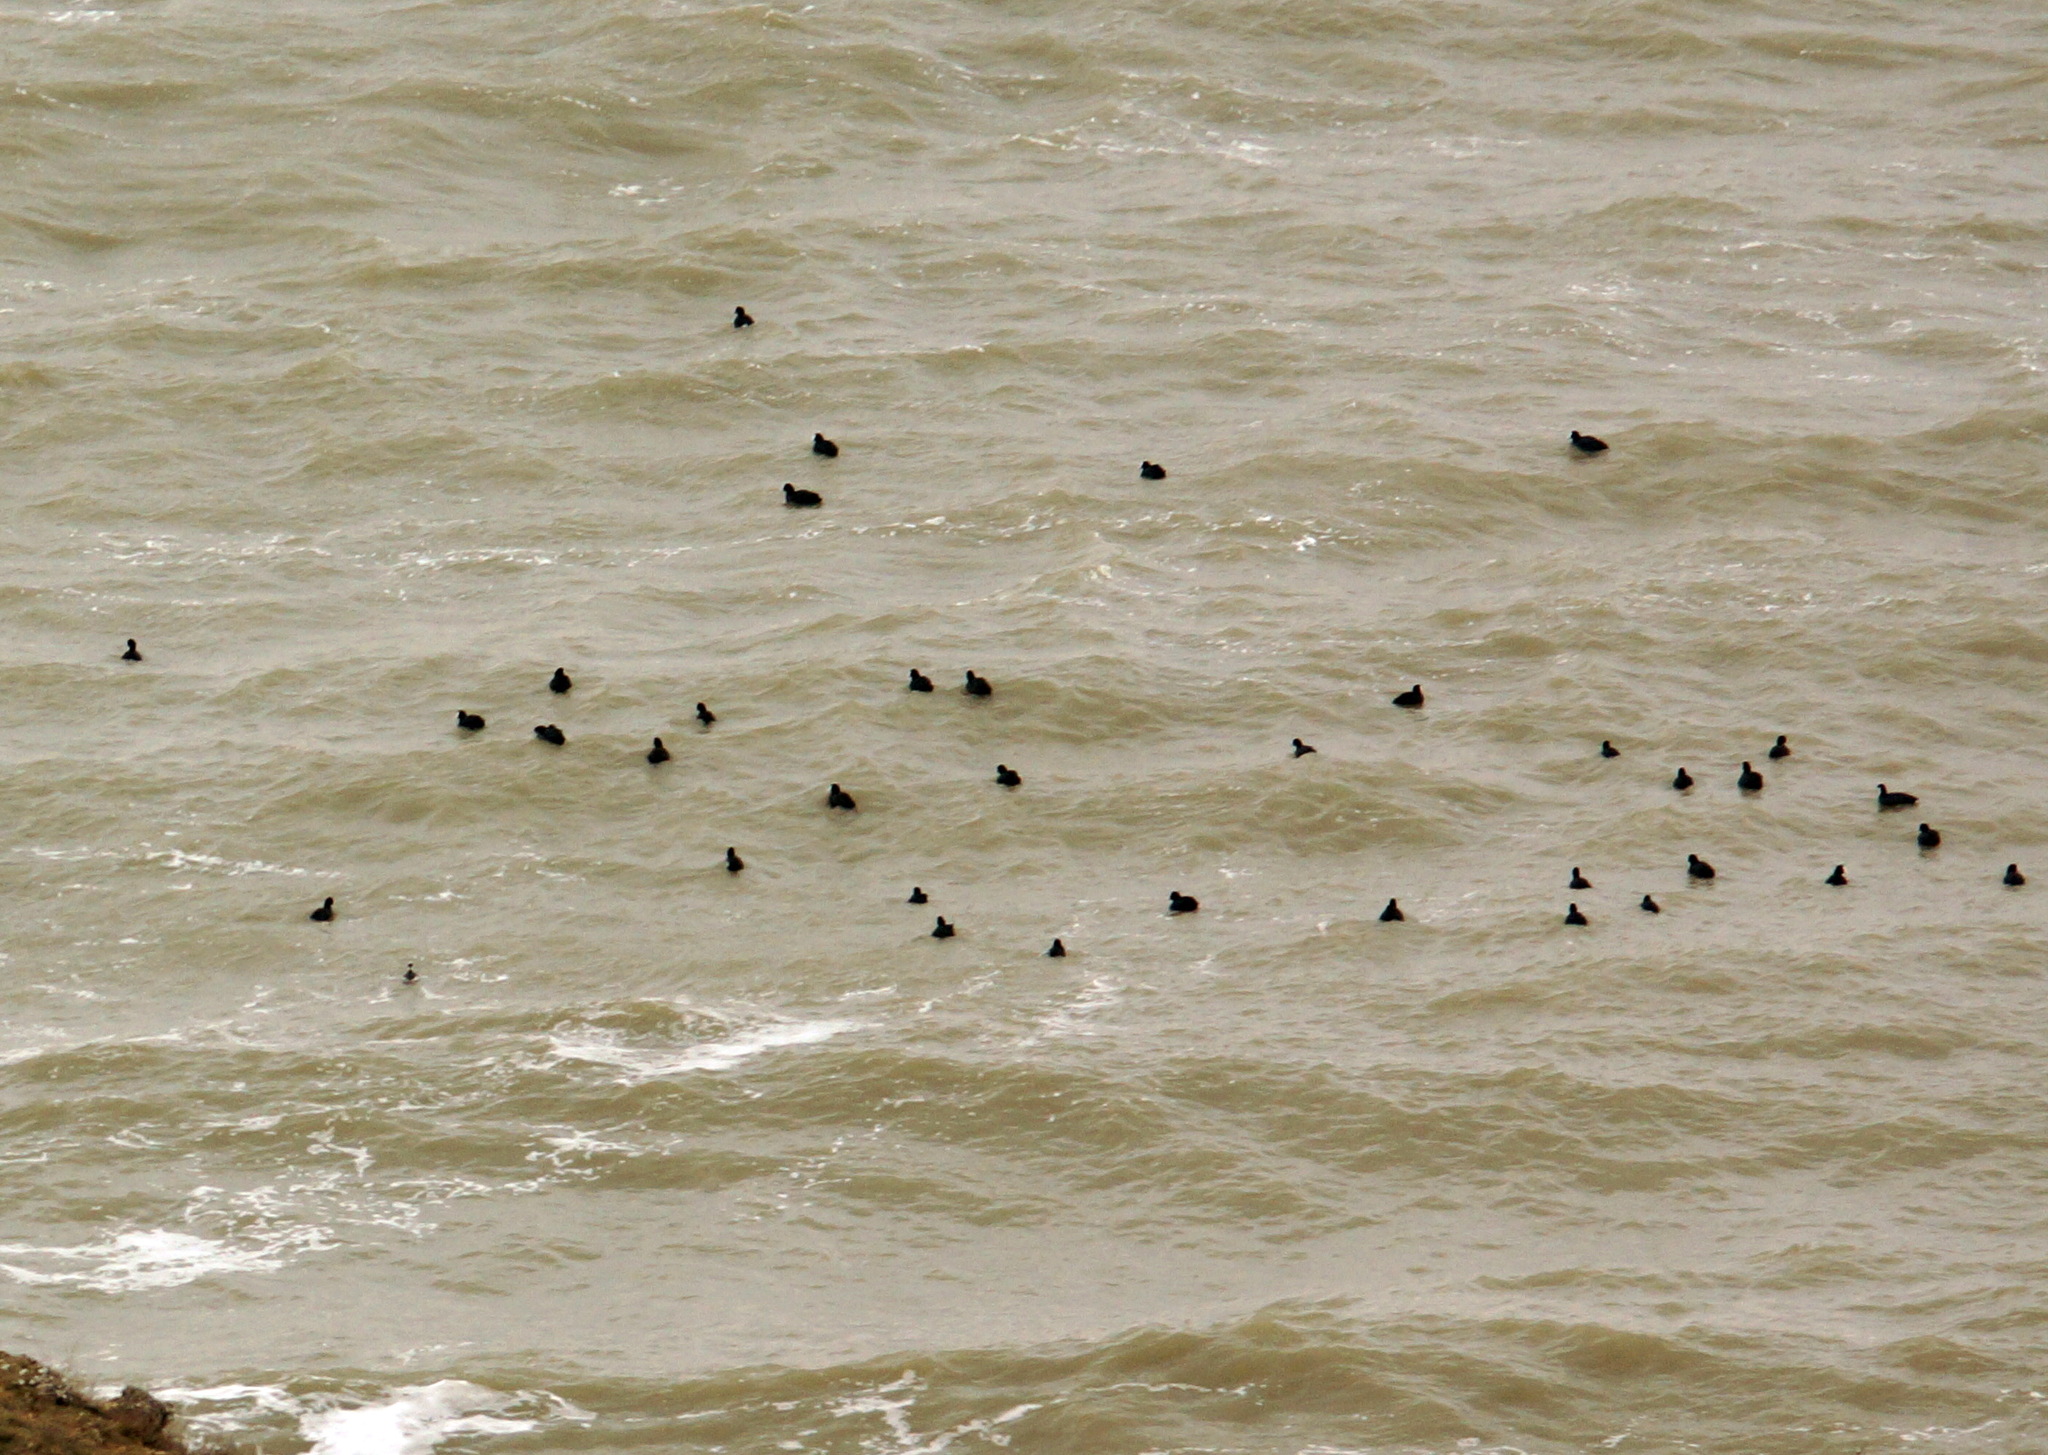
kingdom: Animalia
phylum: Chordata
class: Aves
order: Gruiformes
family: Rallidae
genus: Fulica
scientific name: Fulica atra
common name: Eurasian coot
